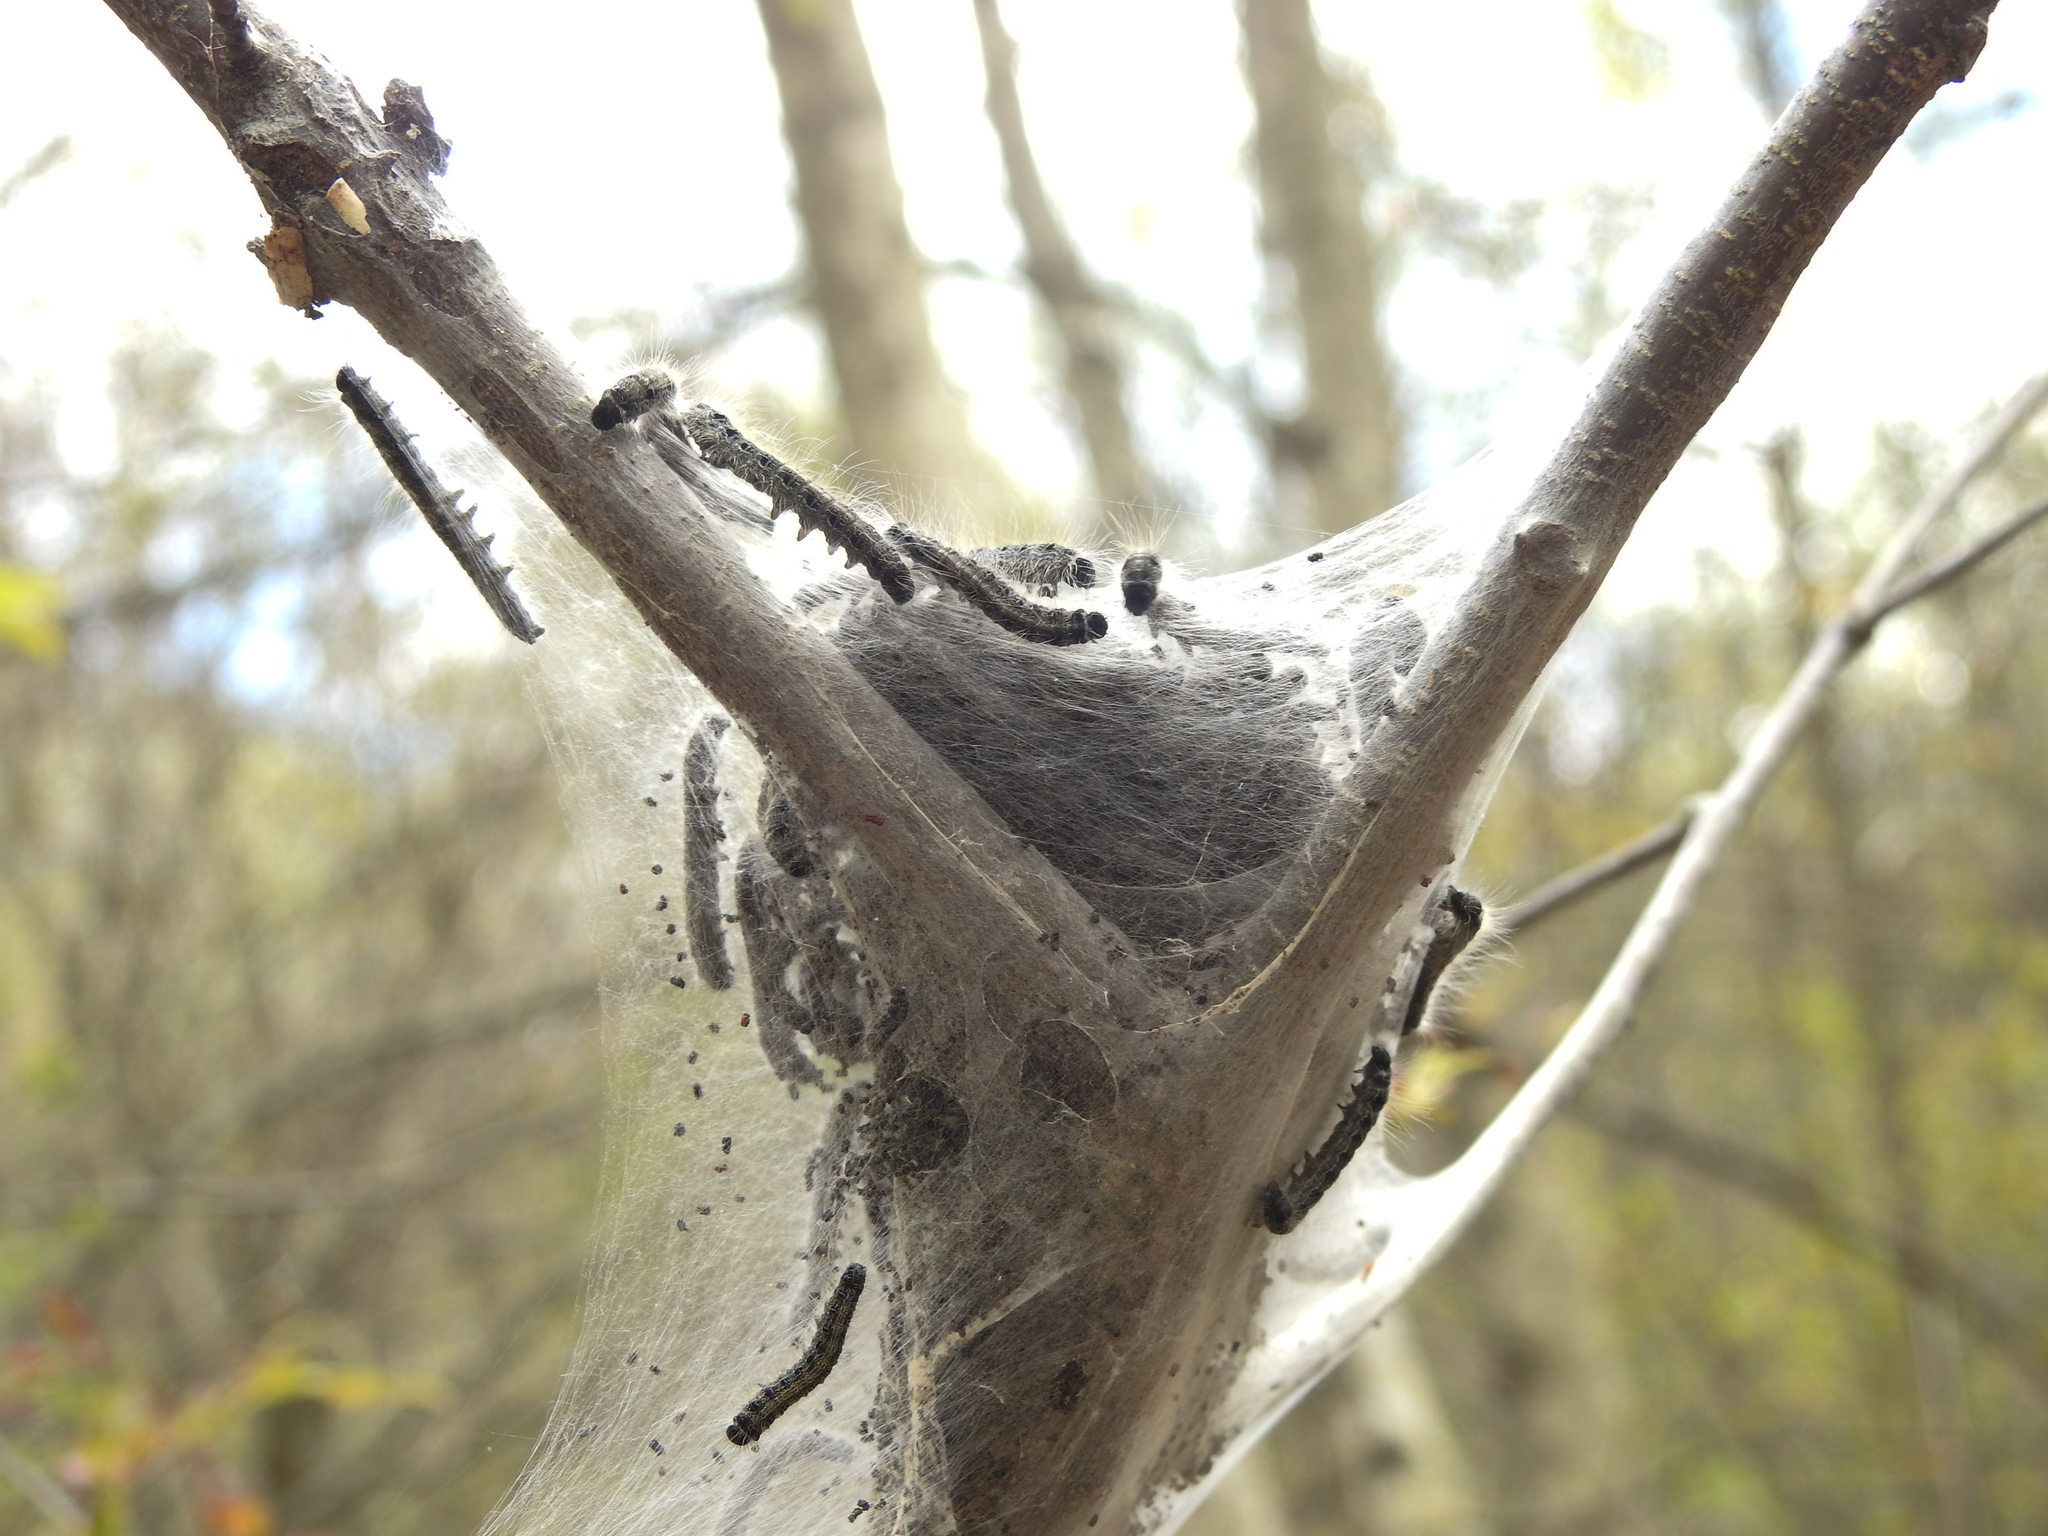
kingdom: Animalia
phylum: Arthropoda
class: Insecta
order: Lepidoptera
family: Lasiocampidae
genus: Malacosoma
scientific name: Malacosoma americana
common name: Eastern tent caterpillar moth
